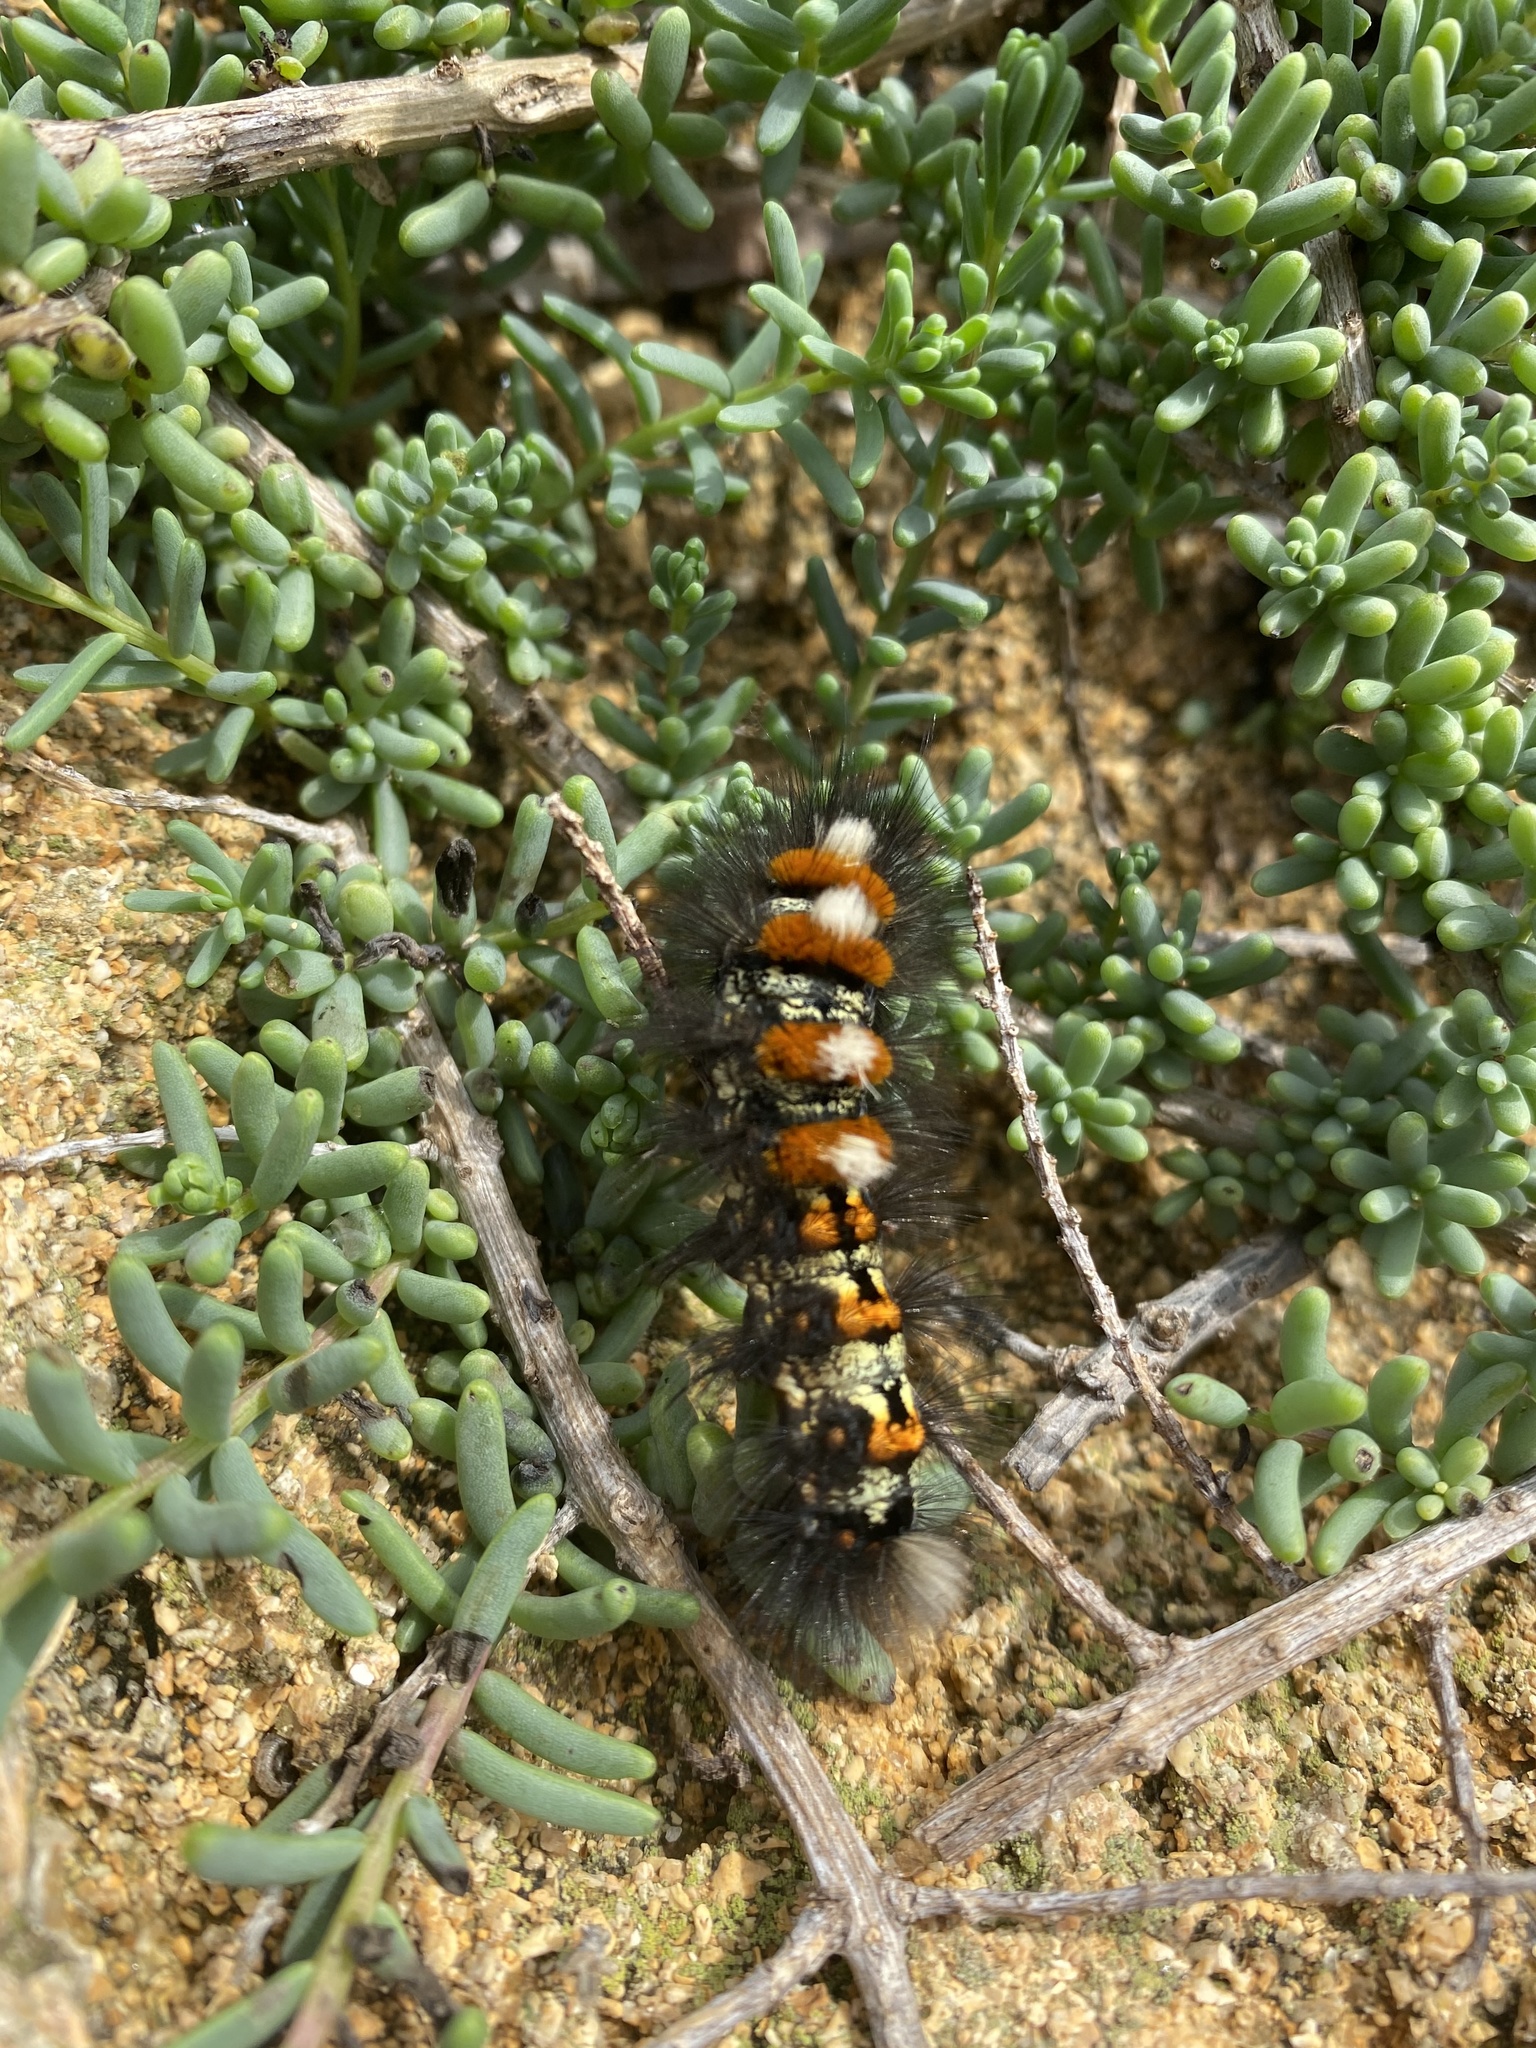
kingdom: Animalia
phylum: Arthropoda
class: Insecta
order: Lepidoptera
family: Erebidae
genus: Orgyia
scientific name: Orgyia dubia
